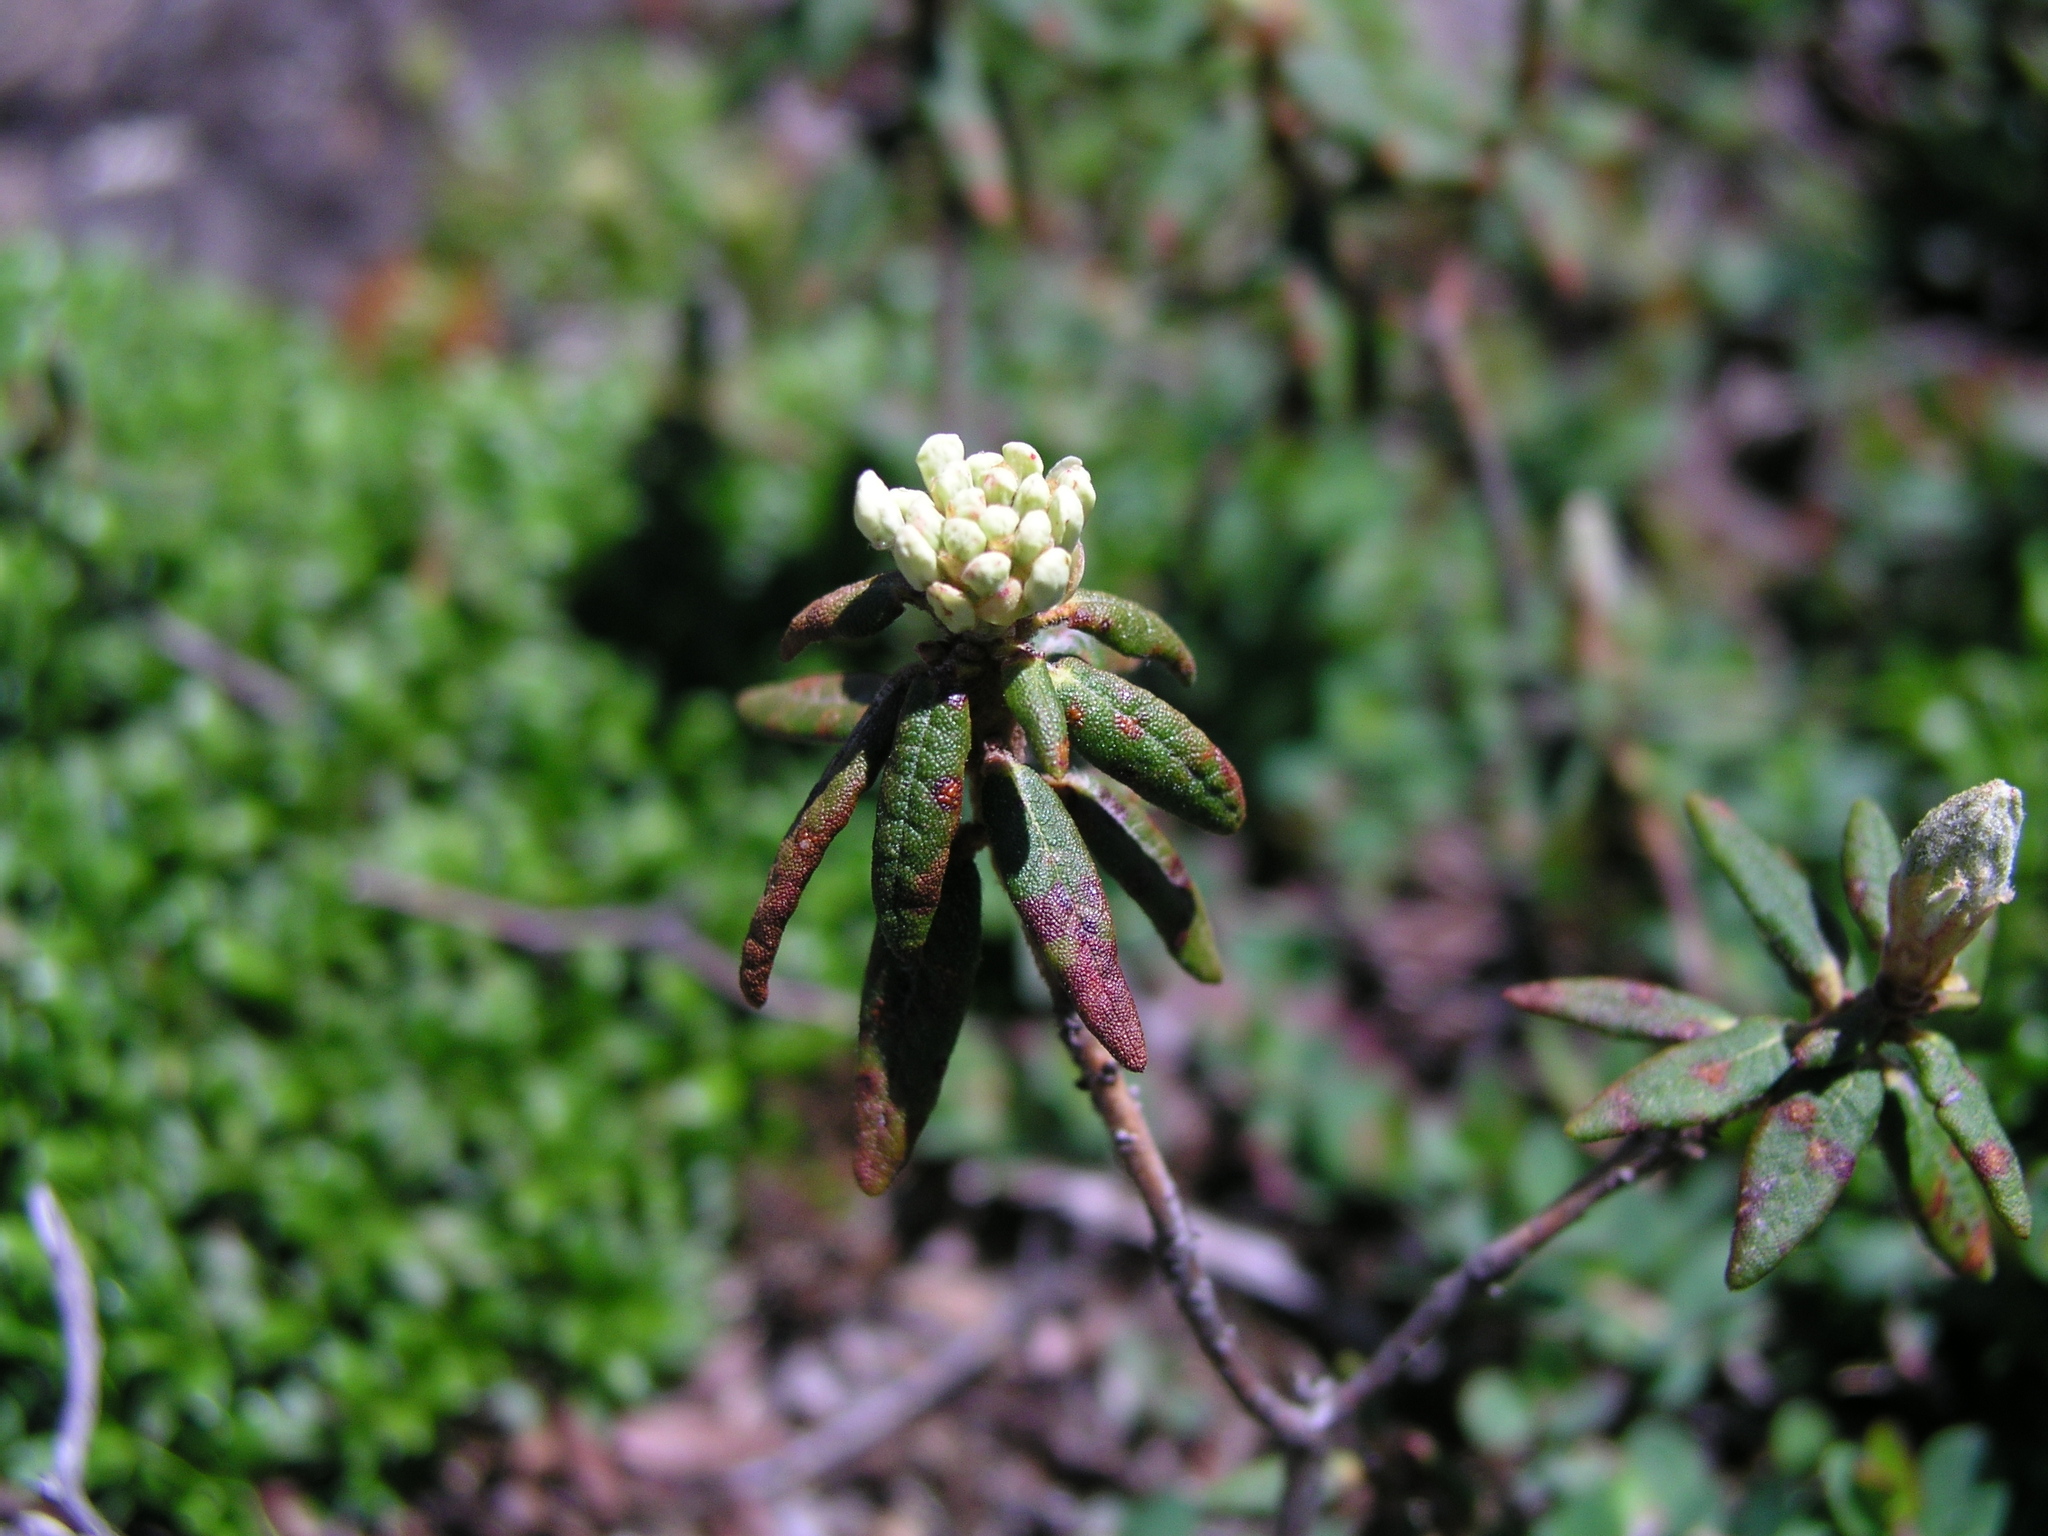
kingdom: Plantae
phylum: Tracheophyta
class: Magnoliopsida
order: Ericales
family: Ericaceae
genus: Rhododendron
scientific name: Rhododendron groenlandicum
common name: Bog labrador tea
